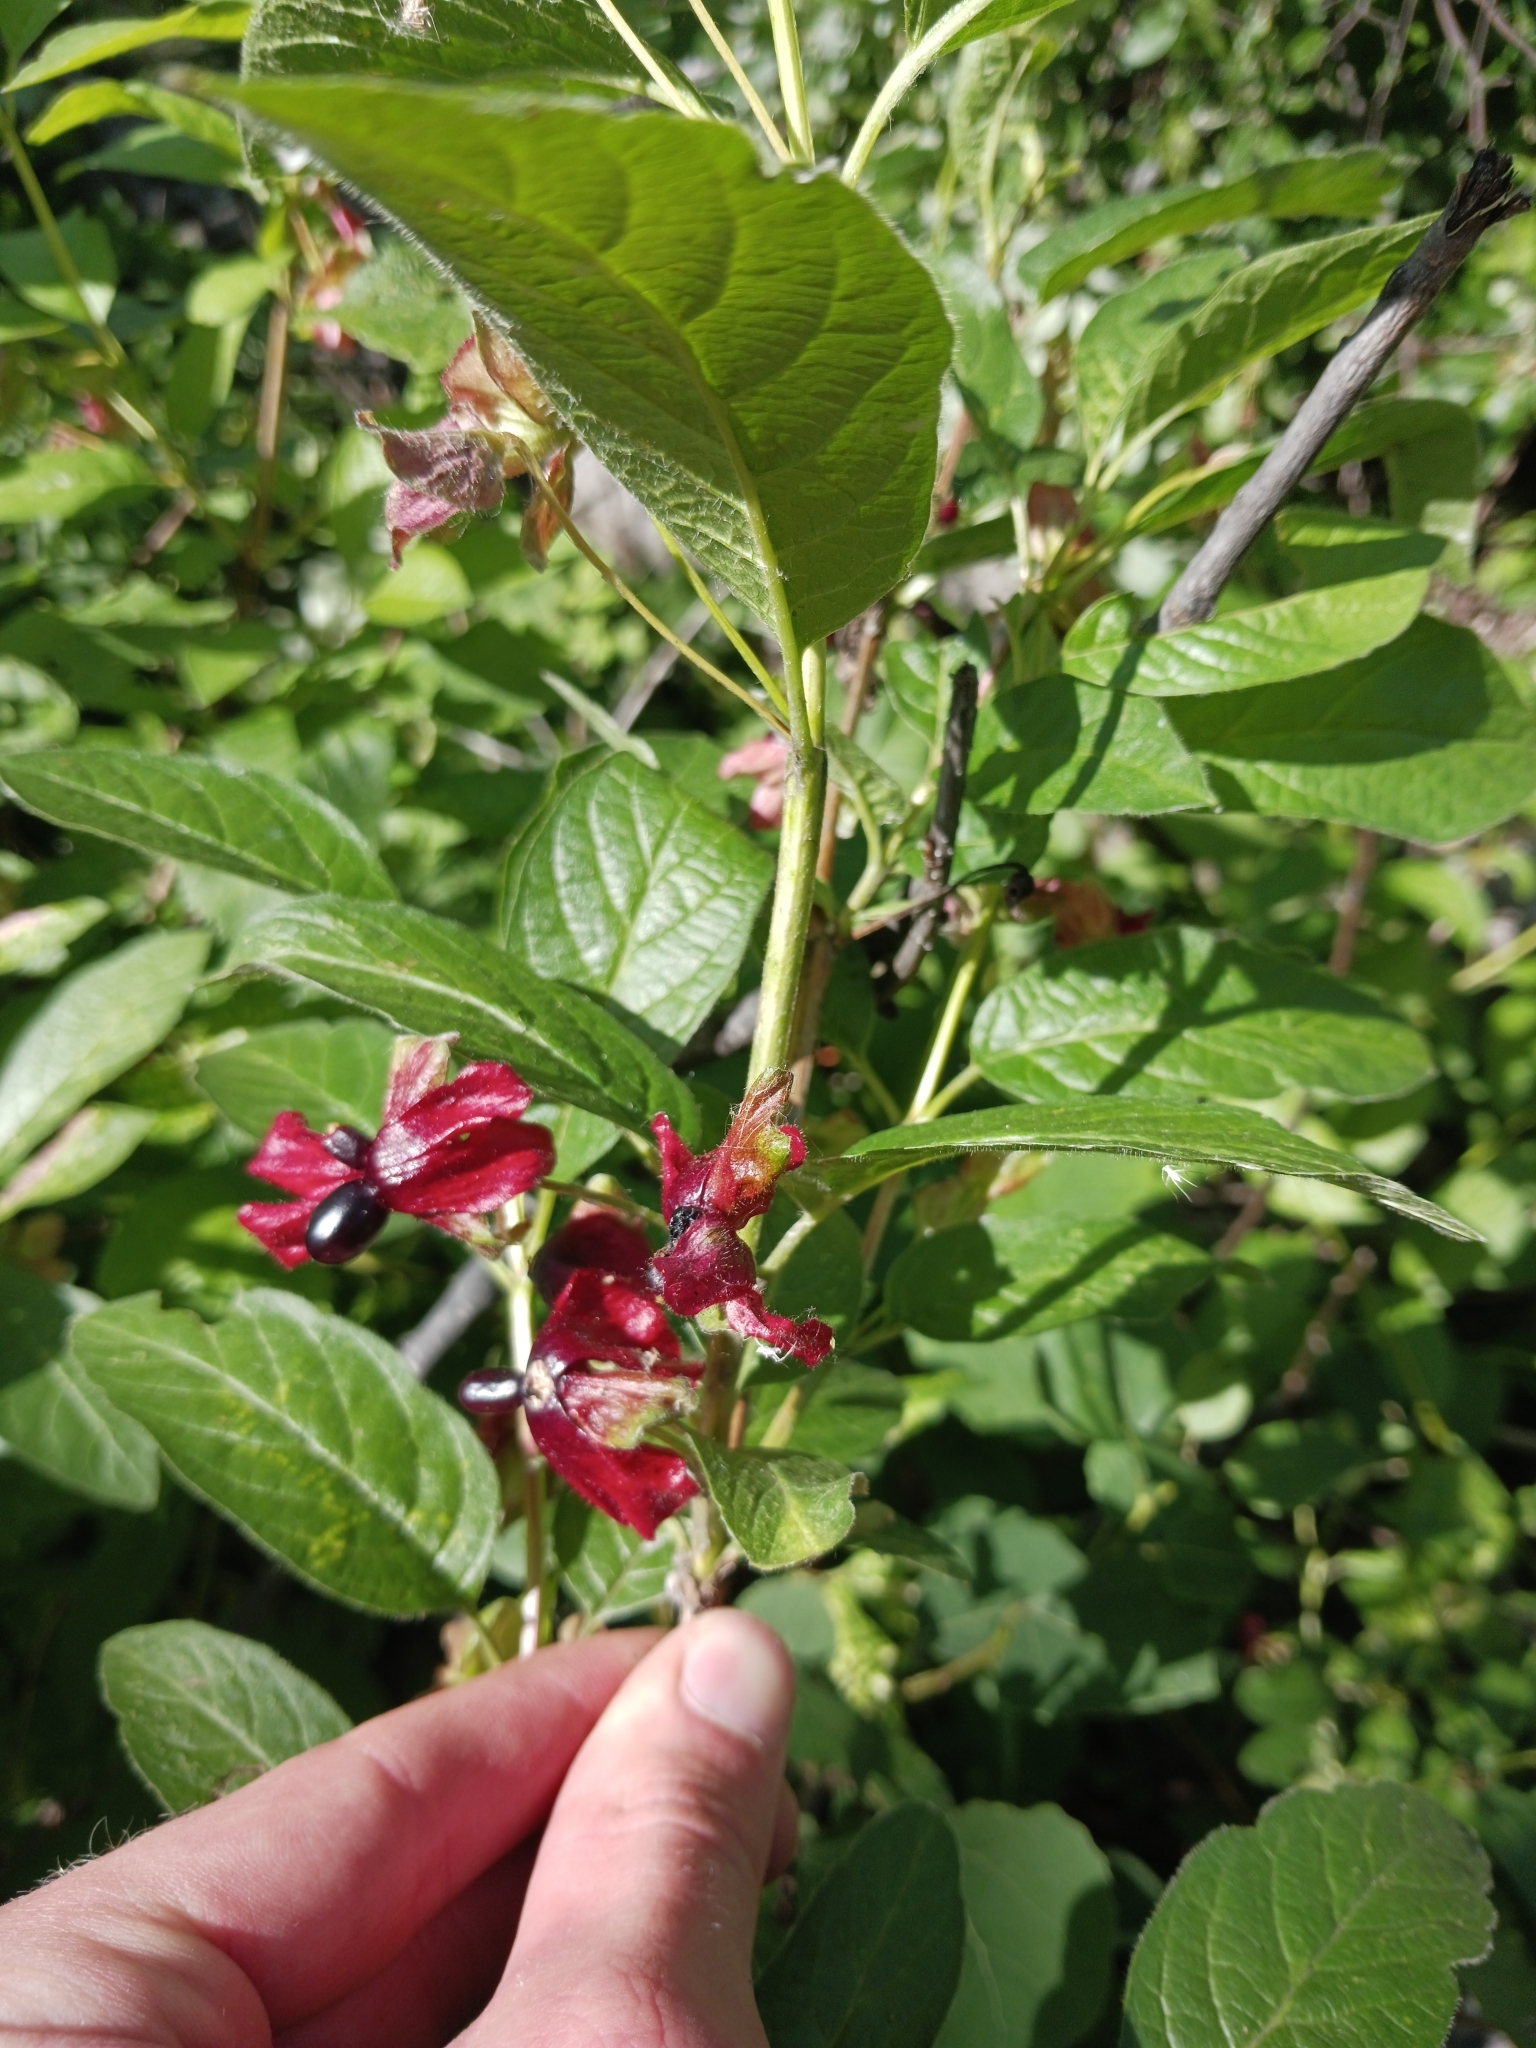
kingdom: Plantae
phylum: Tracheophyta
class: Magnoliopsida
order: Dipsacales
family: Caprifoliaceae
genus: Lonicera
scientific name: Lonicera involucrata
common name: Californian honeysuckle
